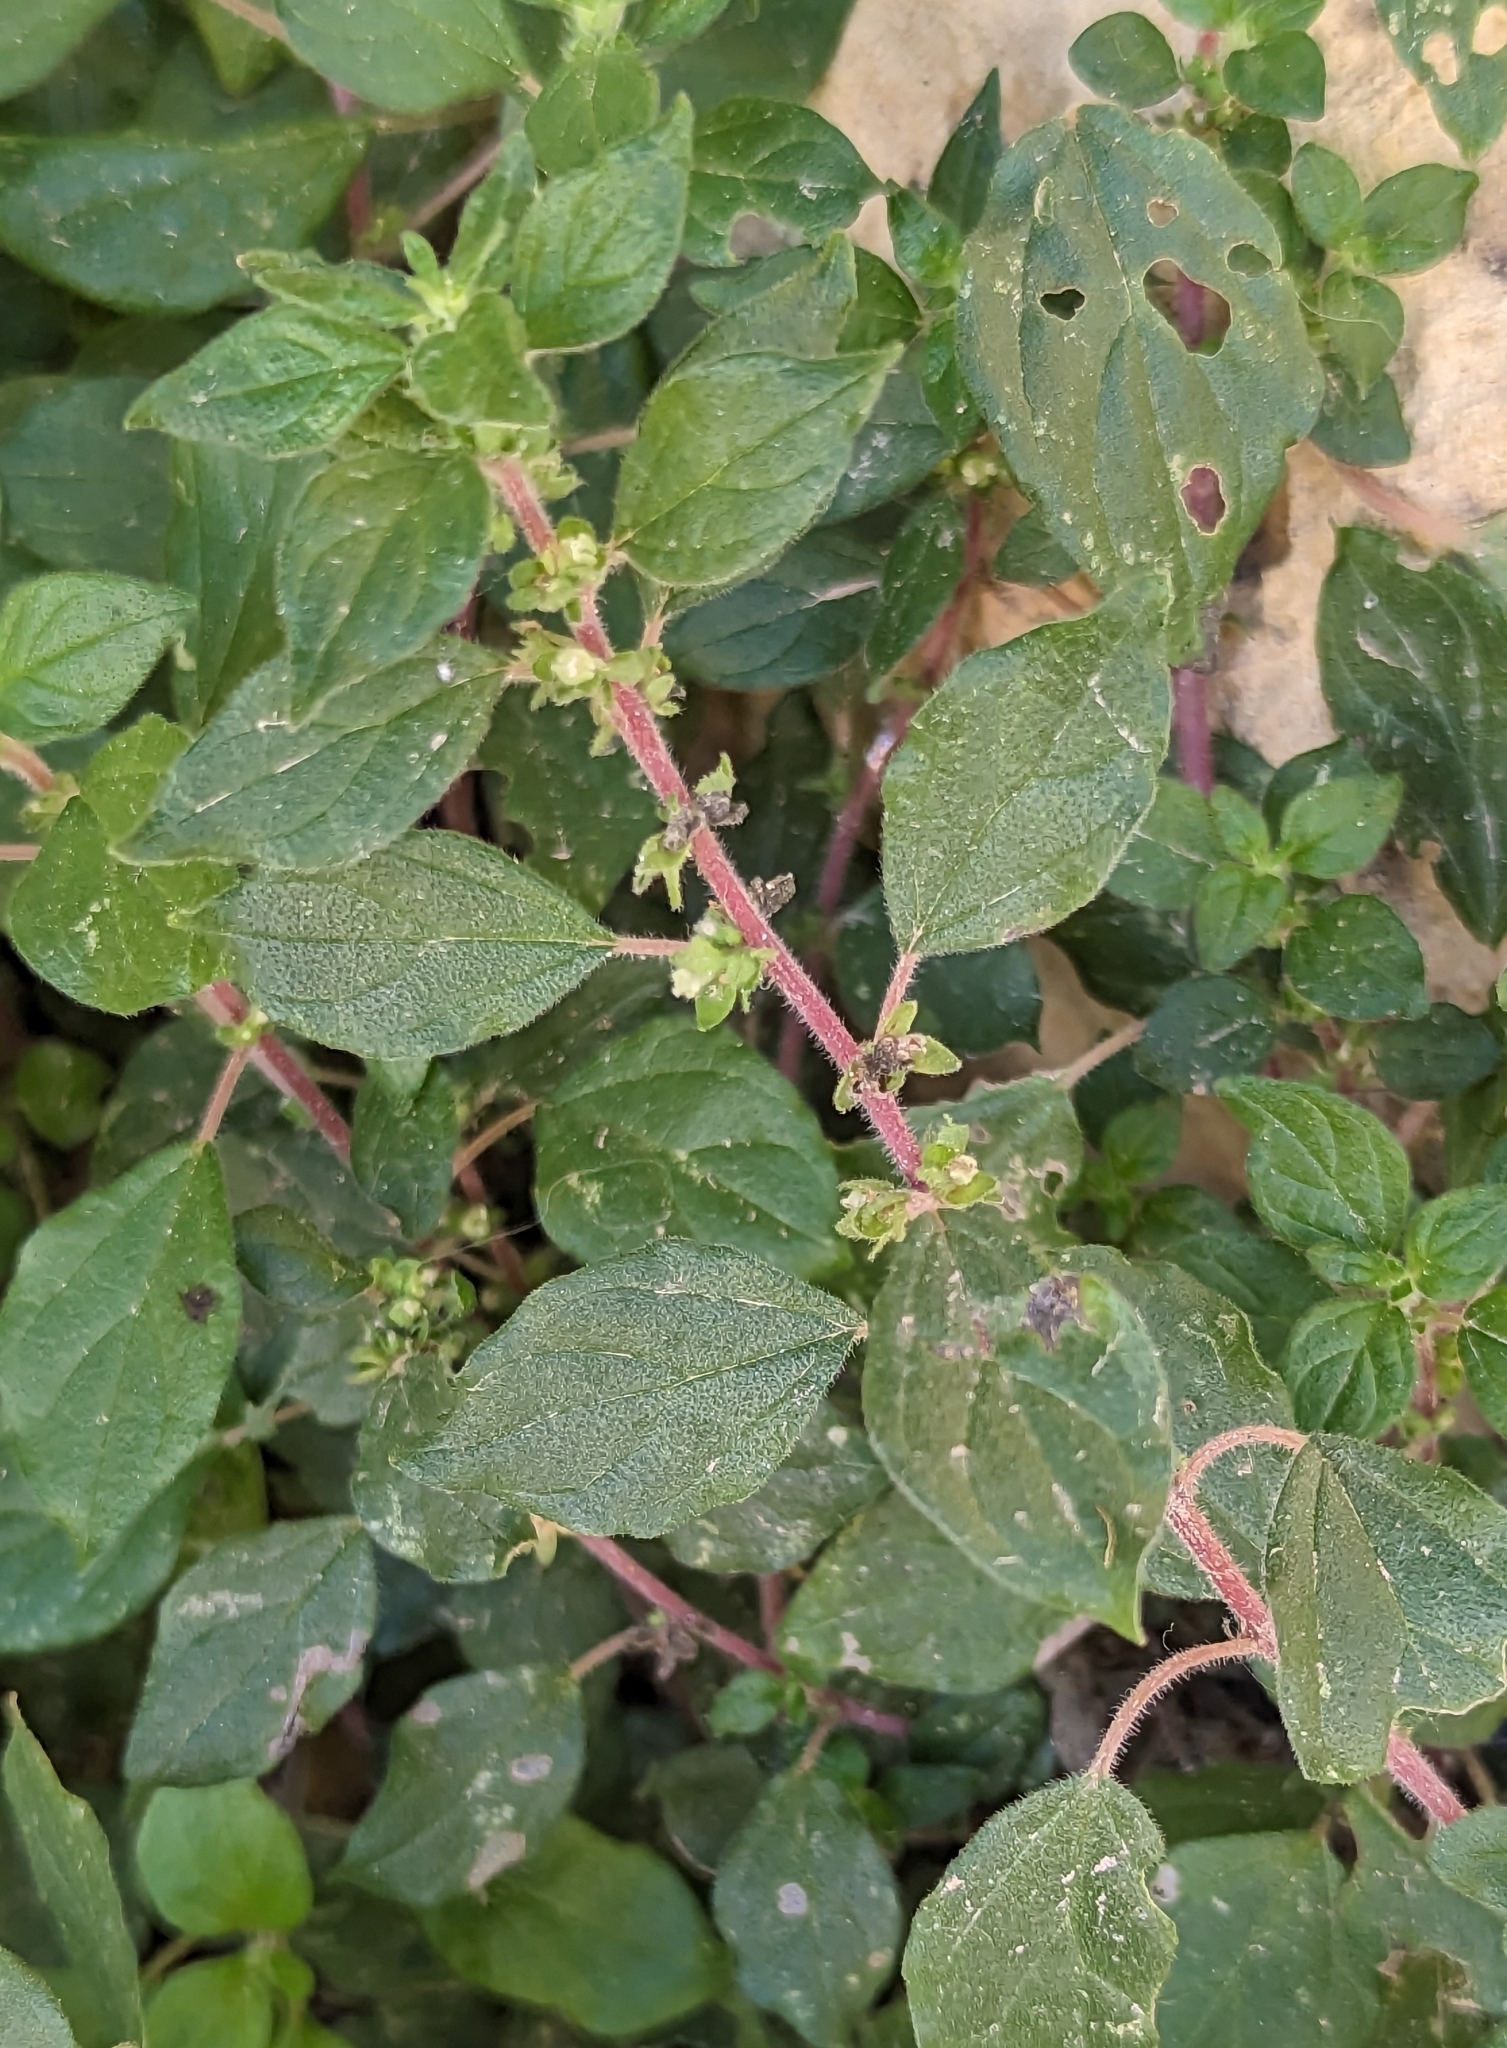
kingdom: Plantae
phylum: Tracheophyta
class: Magnoliopsida
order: Rosales
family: Urticaceae
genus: Parietaria
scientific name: Parietaria judaica
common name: Pellitory-of-the-wall
